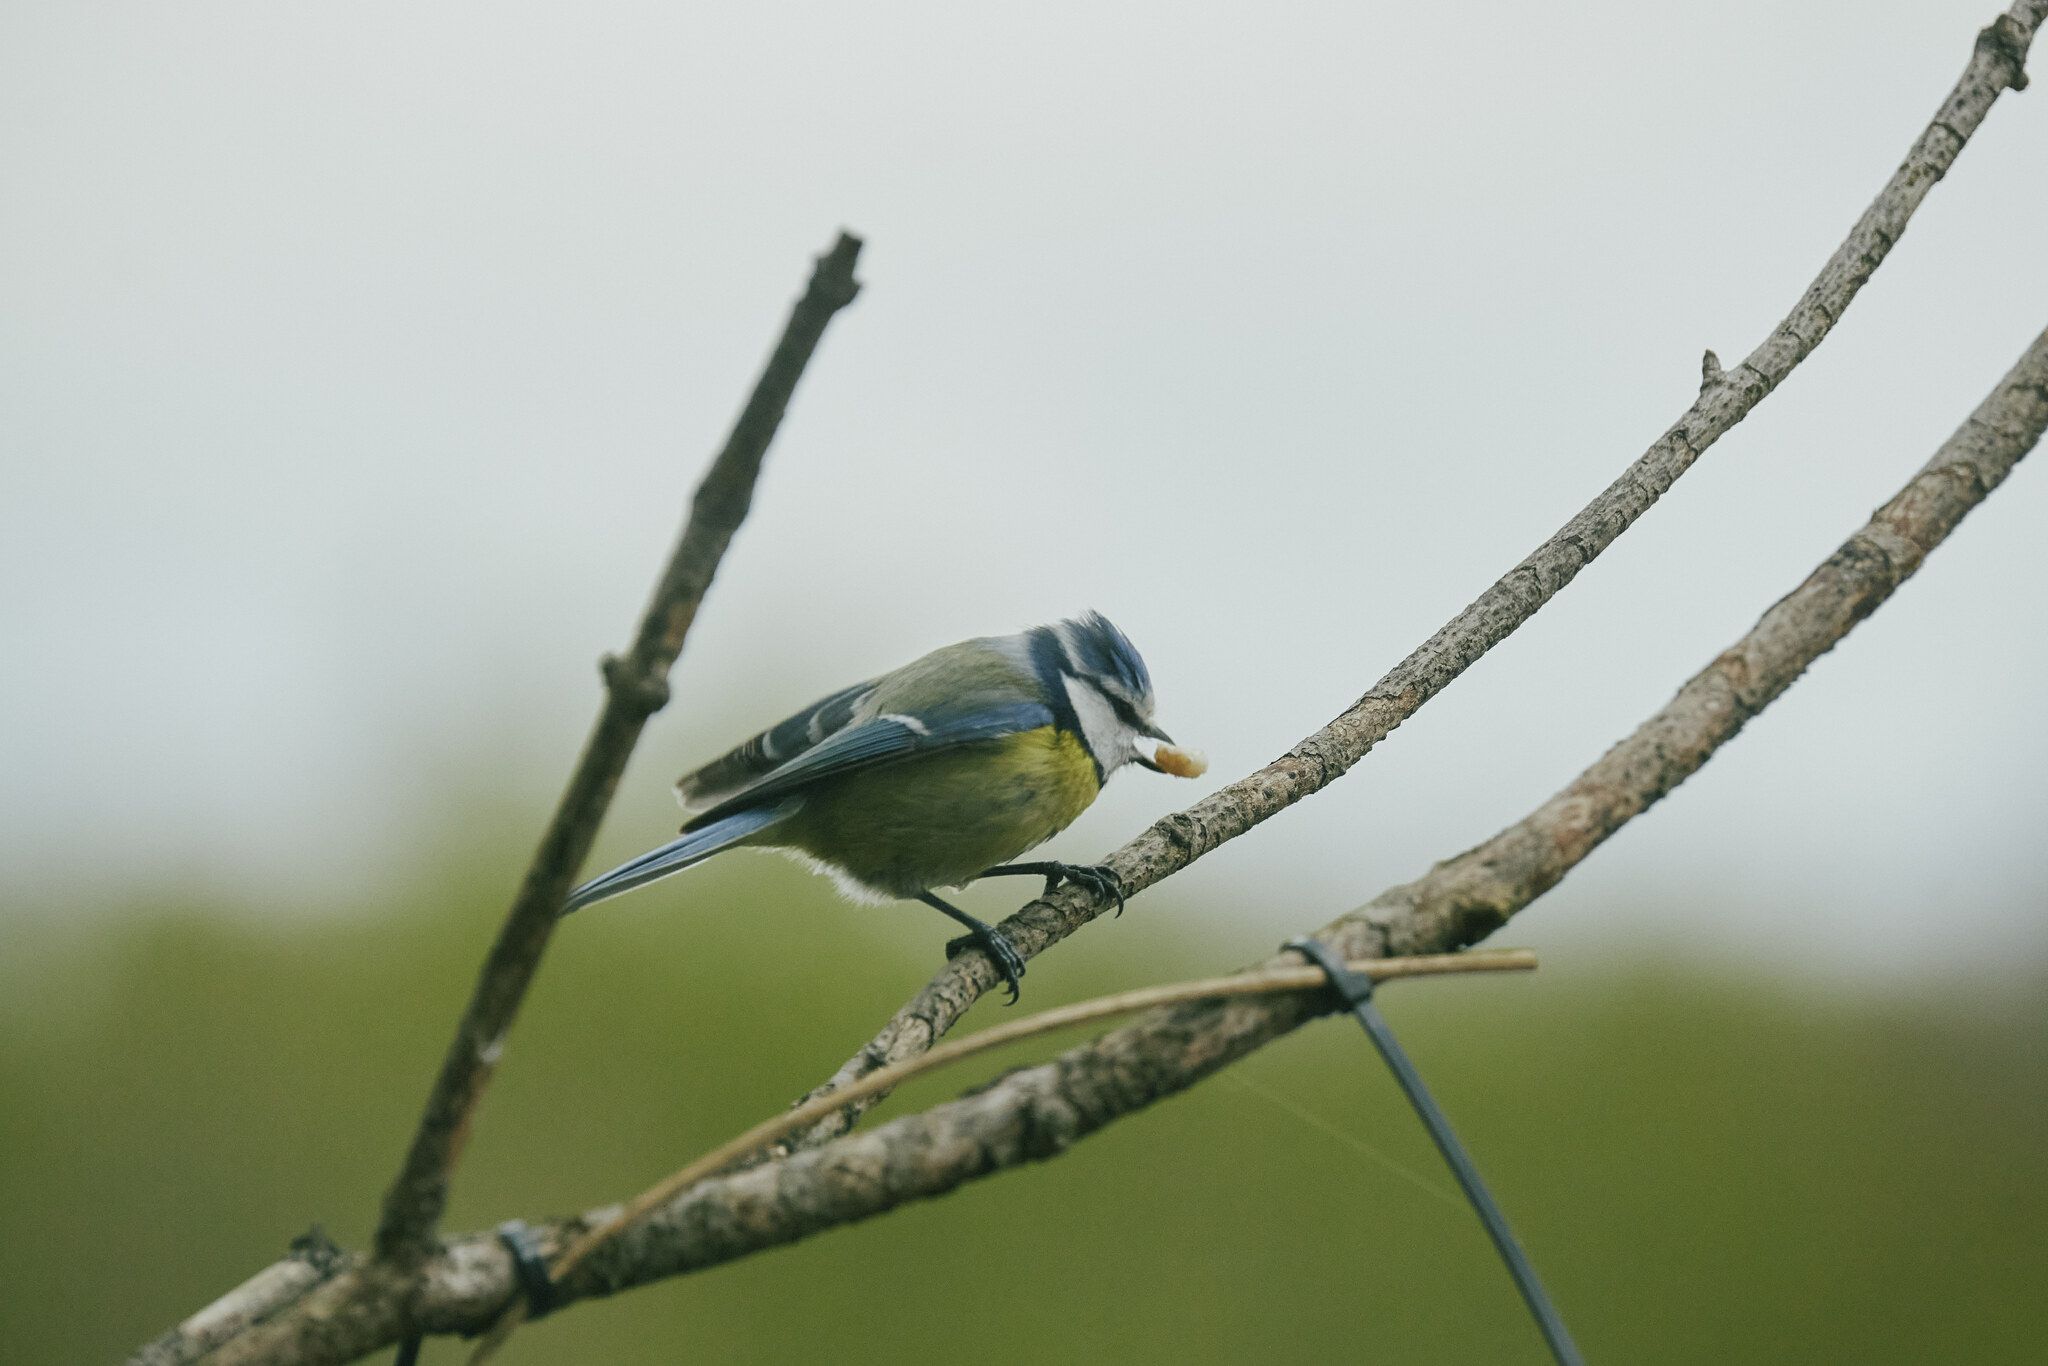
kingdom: Animalia
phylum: Chordata
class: Aves
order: Passeriformes
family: Paridae
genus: Cyanistes
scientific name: Cyanistes caeruleus
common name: Eurasian blue tit
